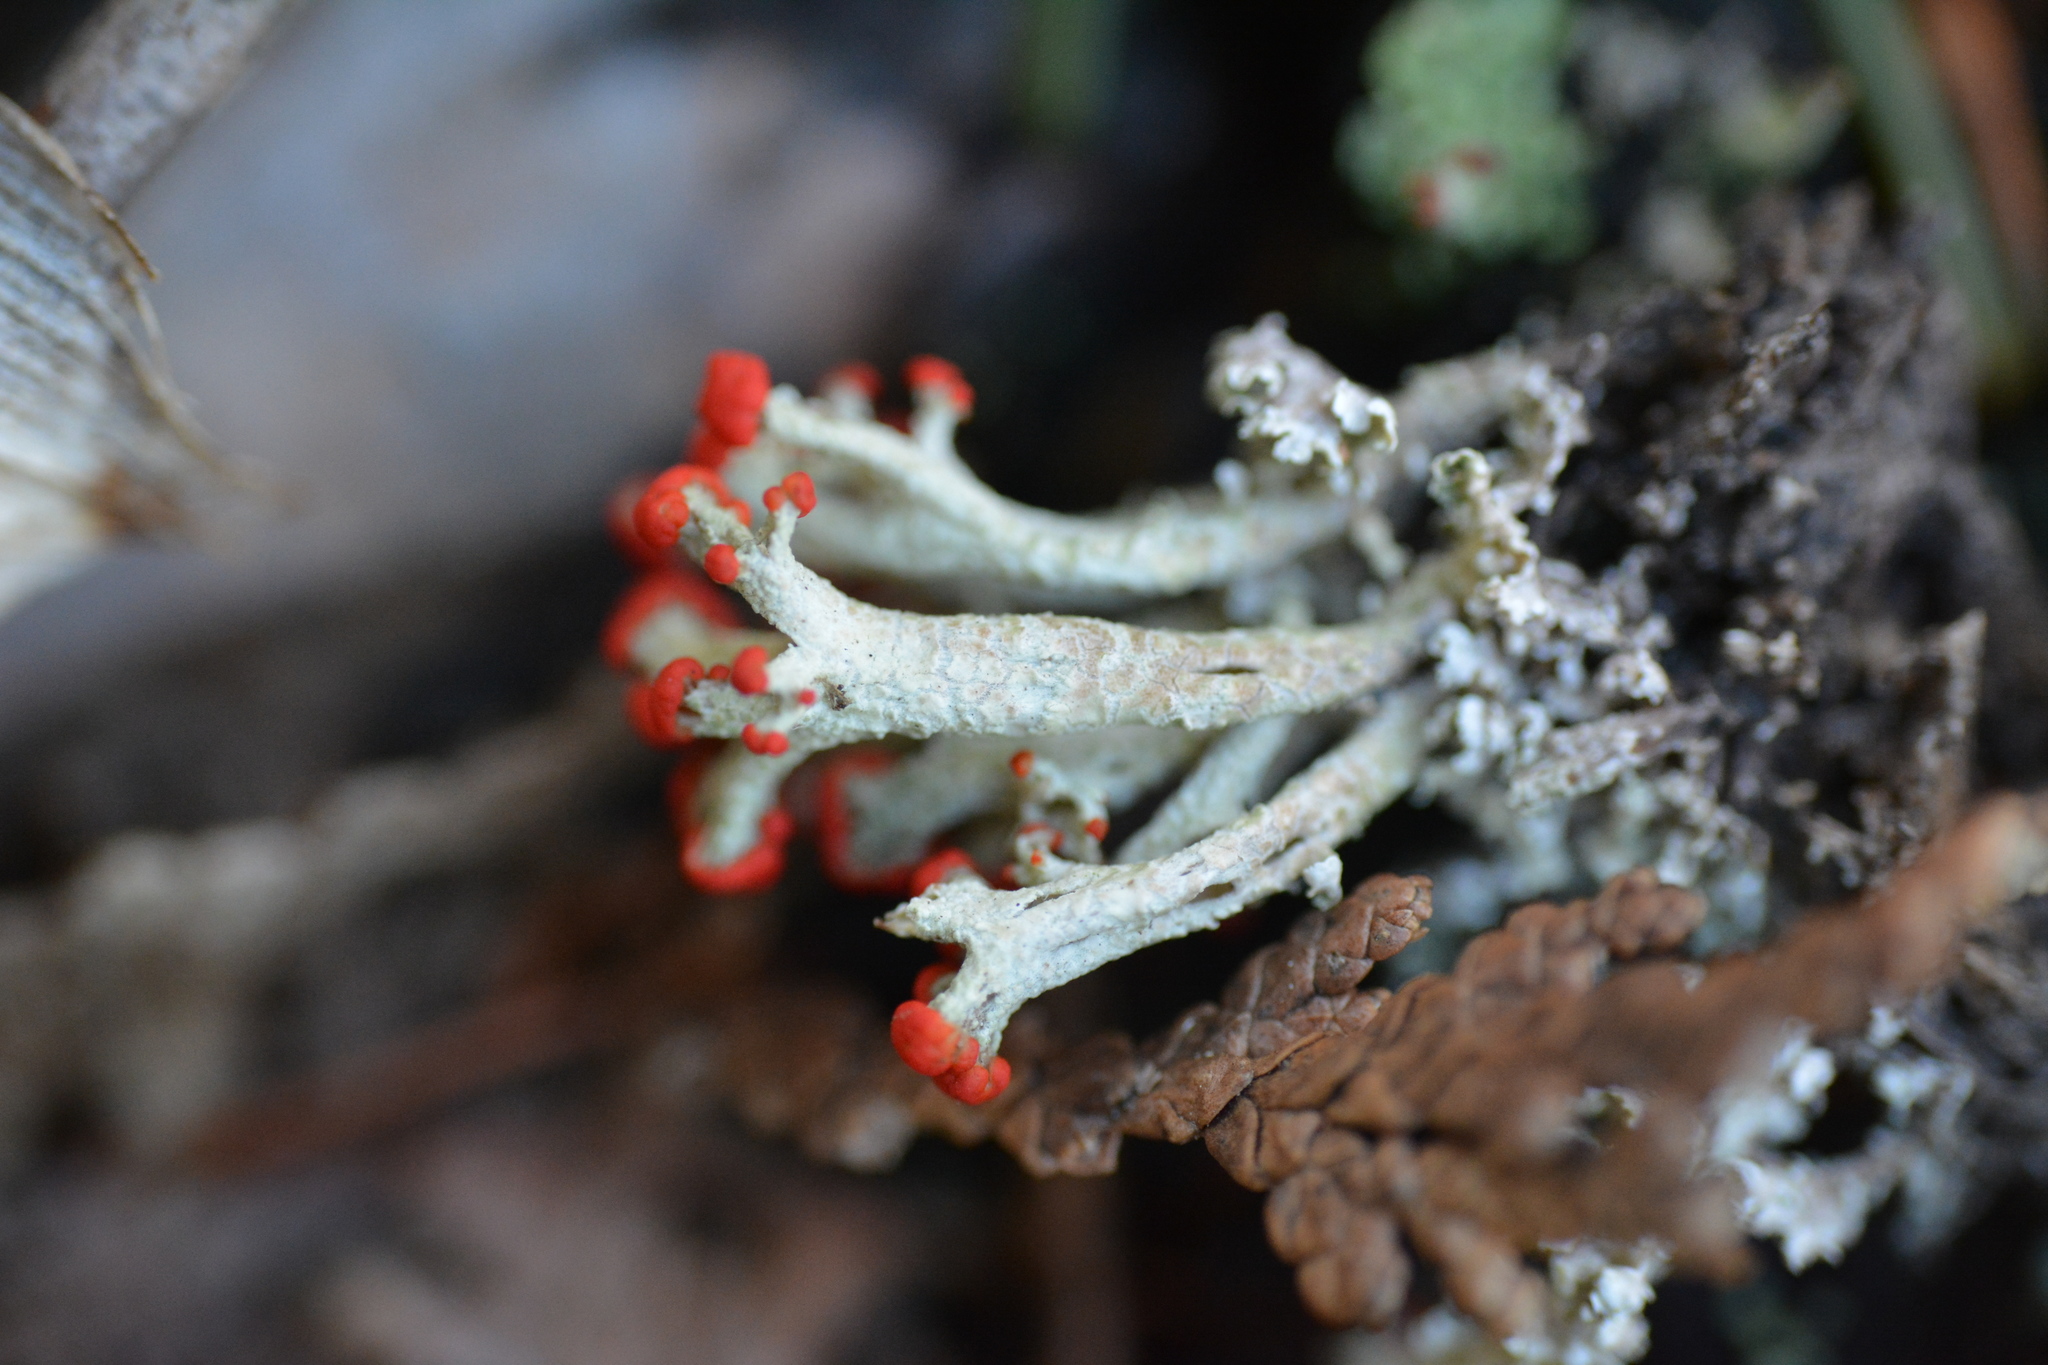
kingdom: Fungi
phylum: Ascomycota
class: Lecanoromycetes
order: Lecanorales
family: Cladoniaceae
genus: Cladonia
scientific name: Cladonia cristatella
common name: British soldier lichen
